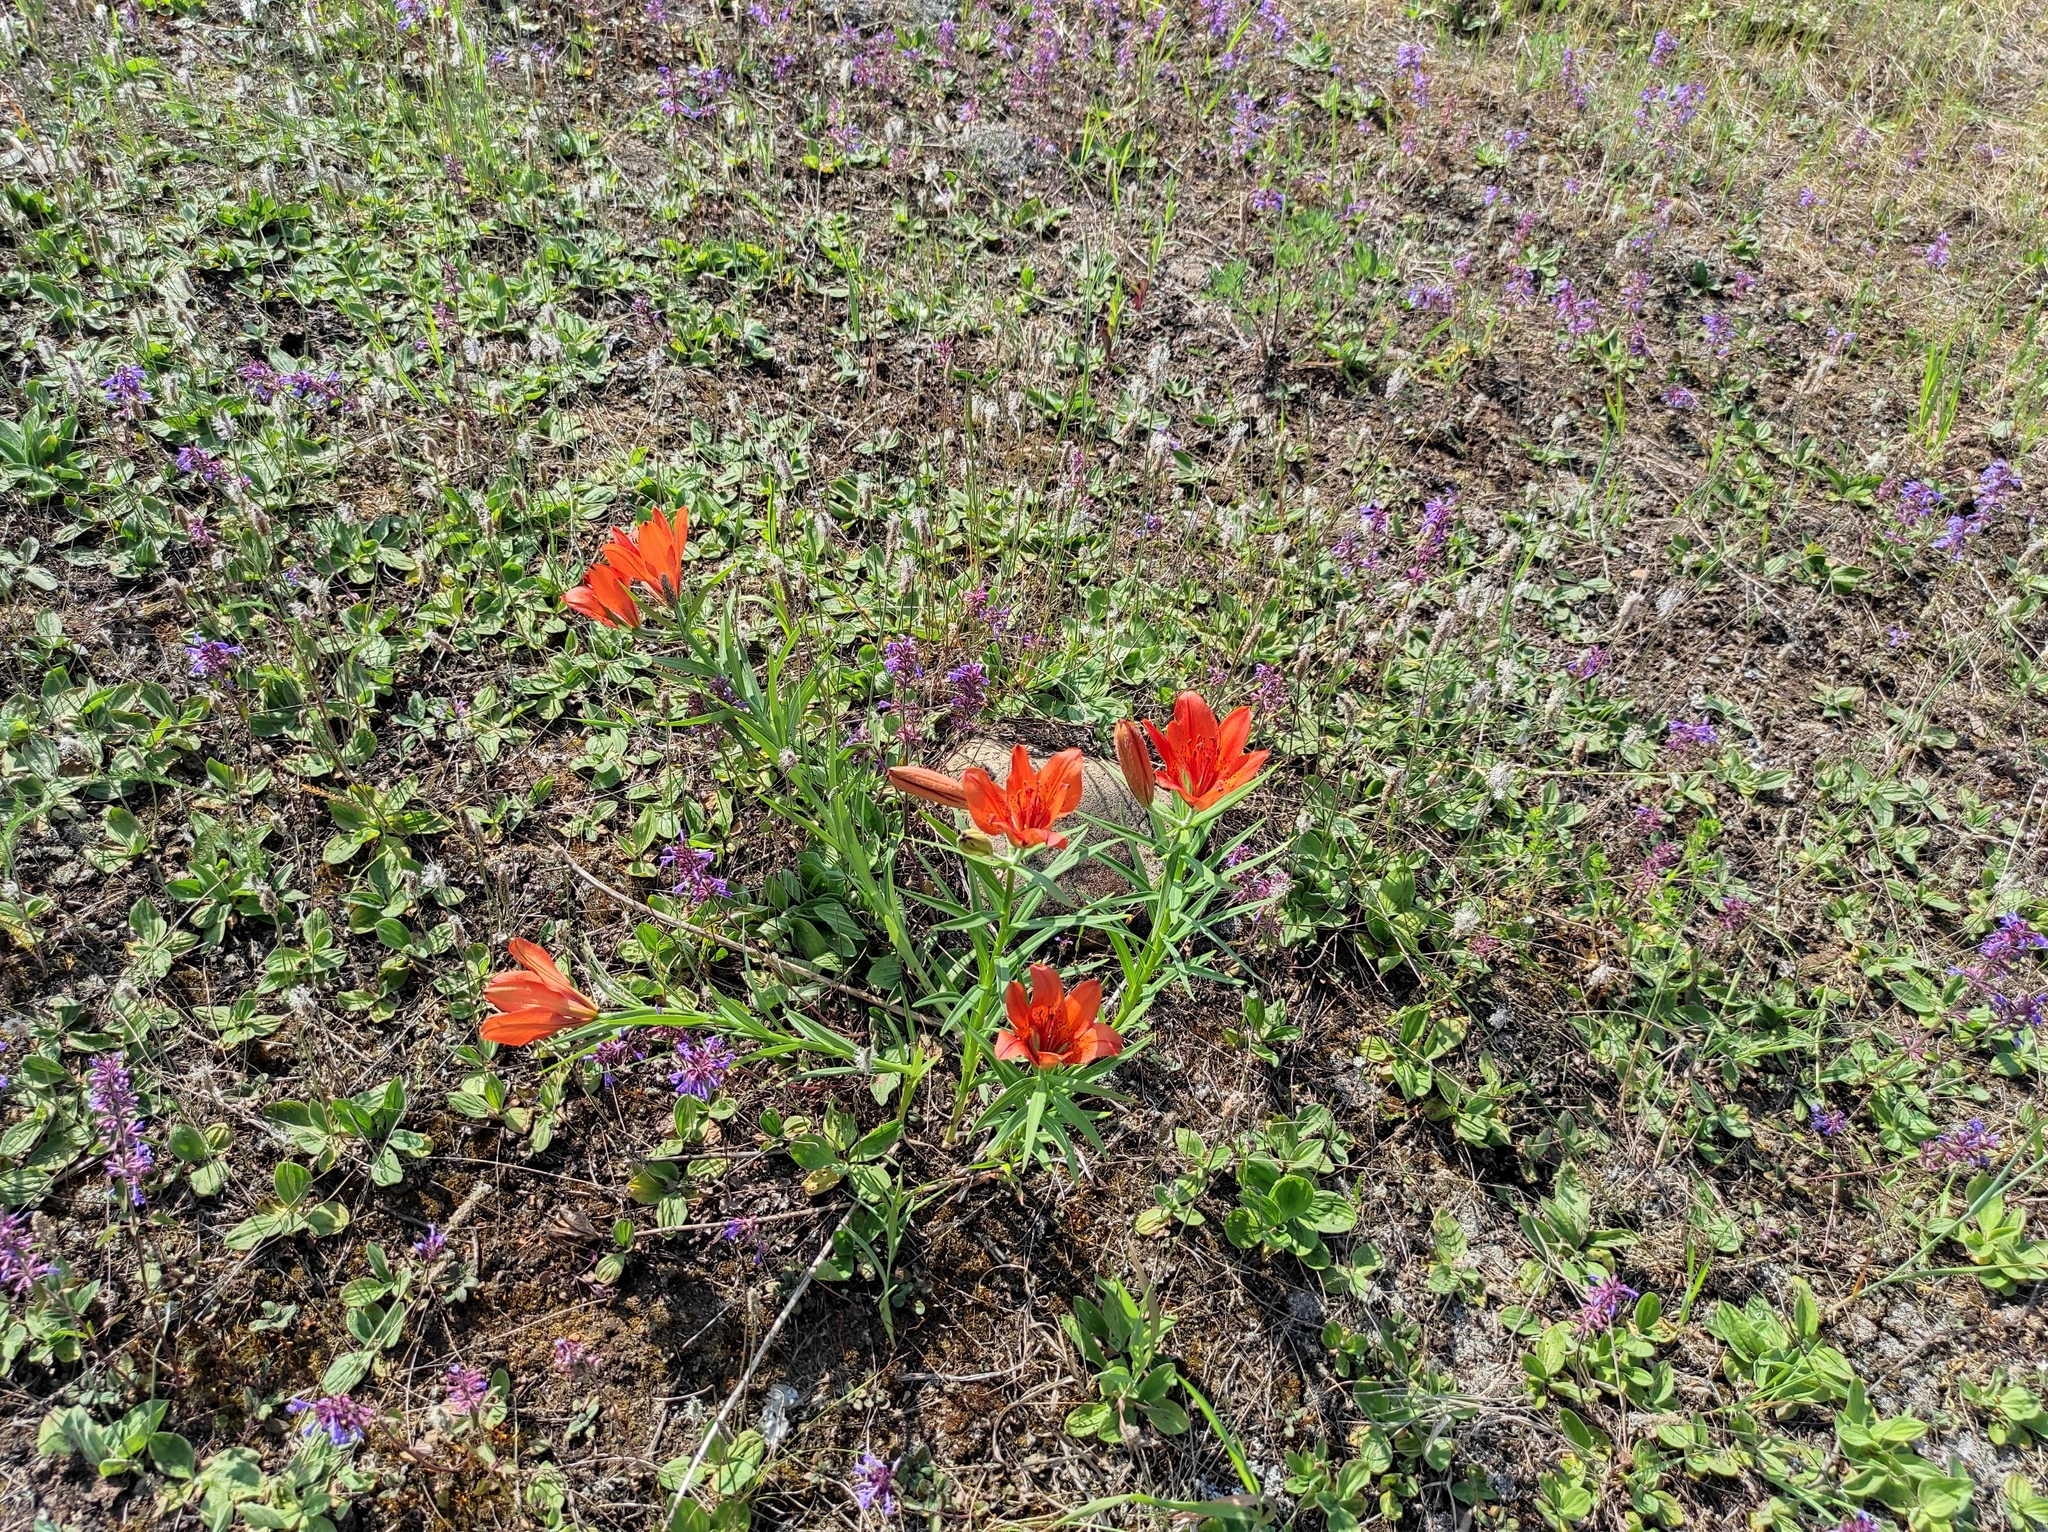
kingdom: Plantae
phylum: Tracheophyta
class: Liliopsida
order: Liliales
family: Liliaceae
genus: Lilium
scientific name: Lilium pensylvanicum
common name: Candlestick lily
